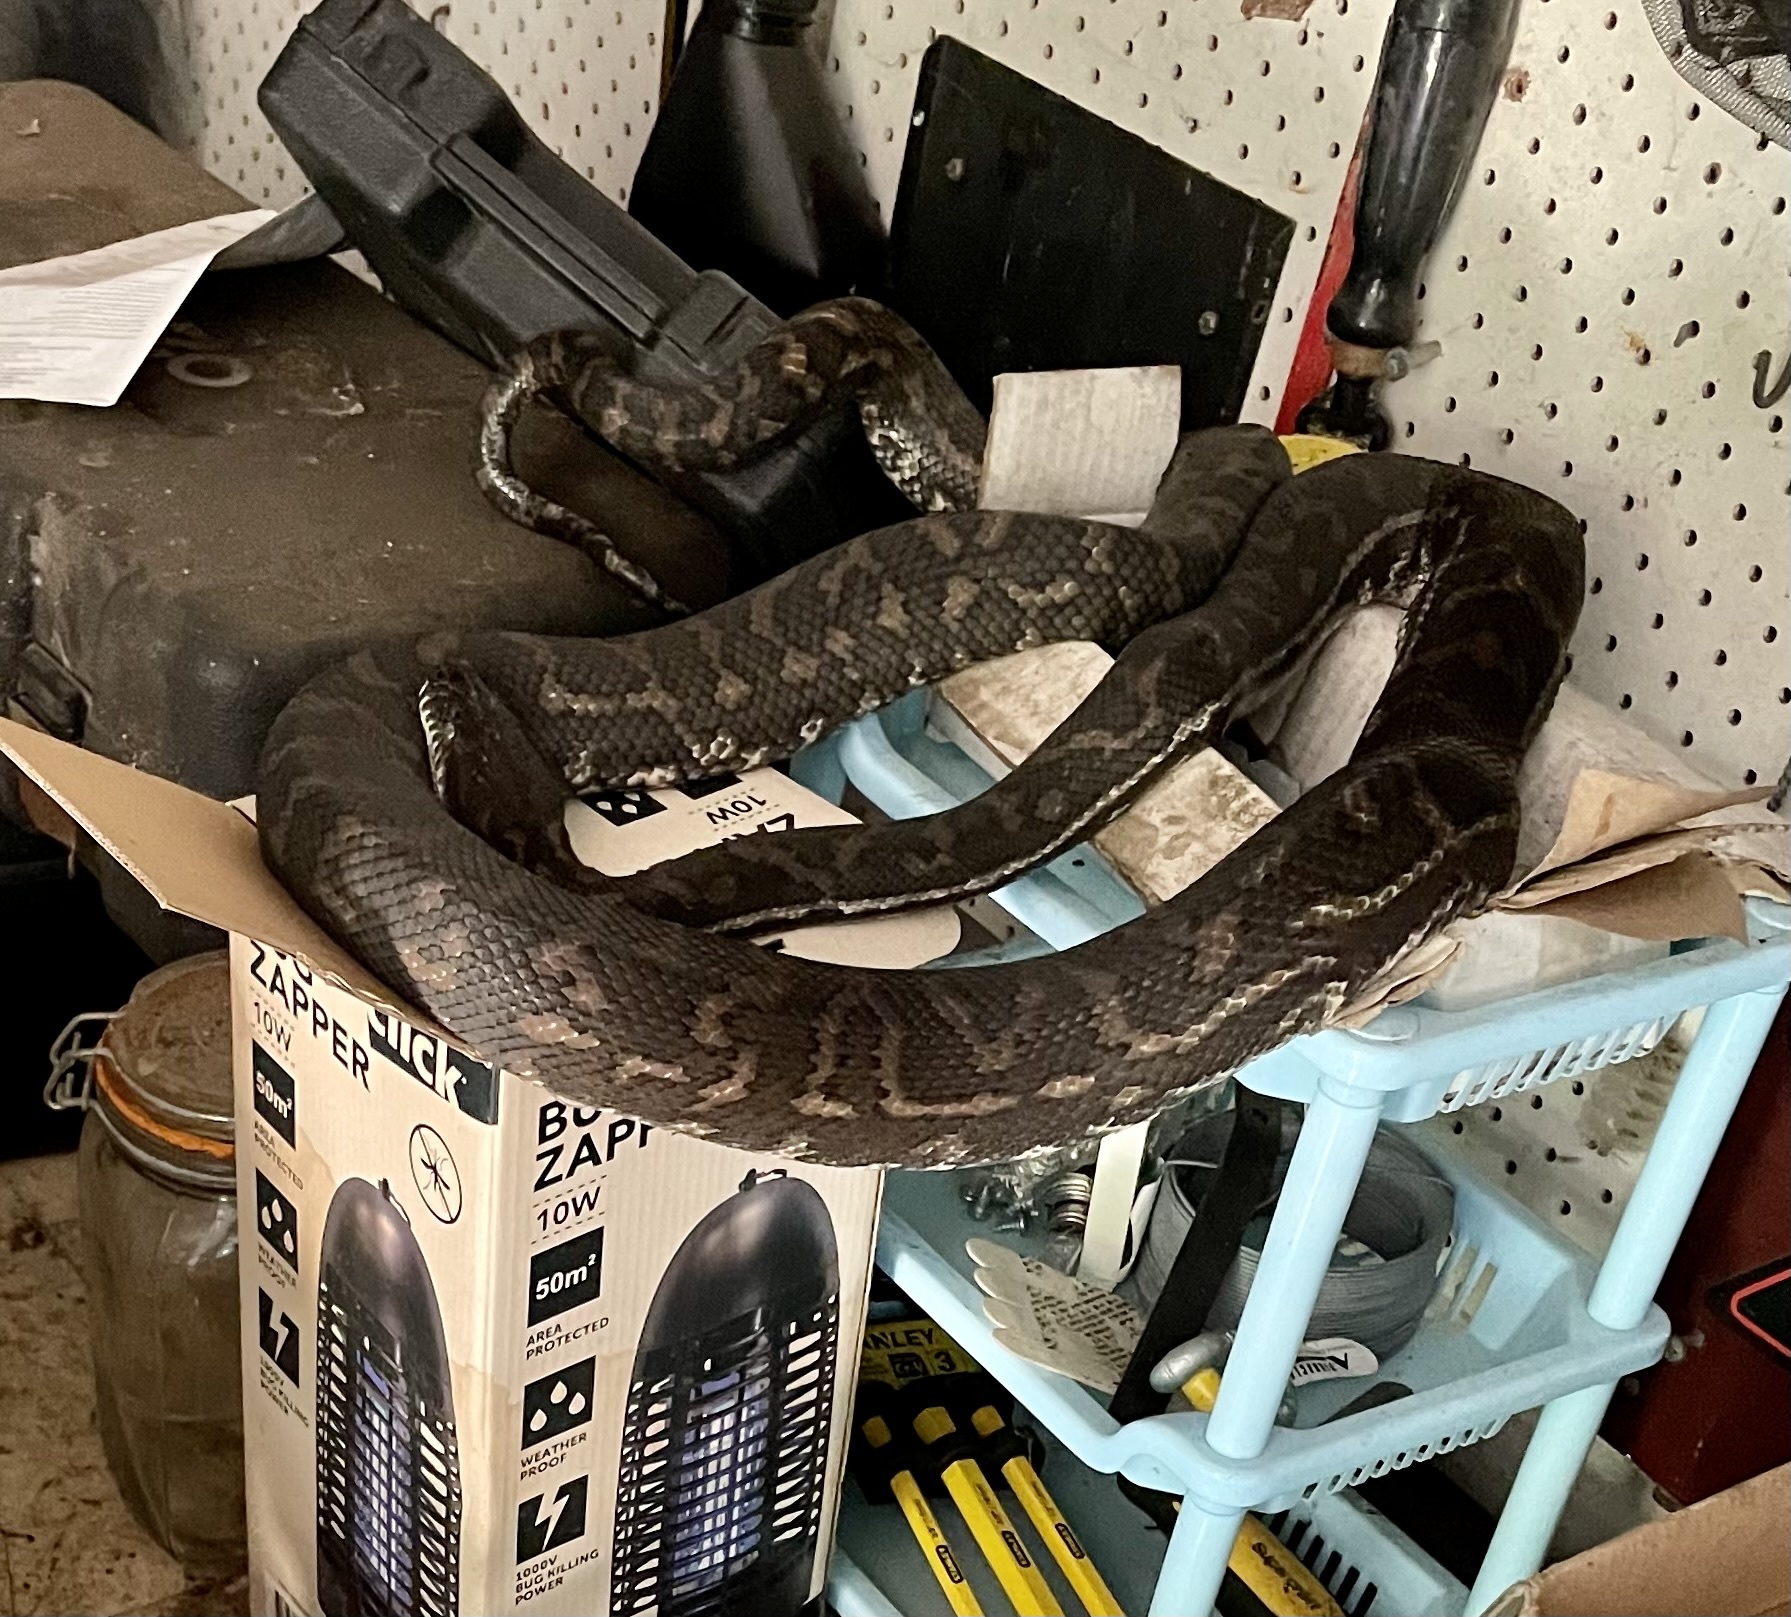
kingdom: Animalia
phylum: Chordata
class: Squamata
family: Pythonidae
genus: Morelia
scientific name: Morelia spilota
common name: Carpet python
